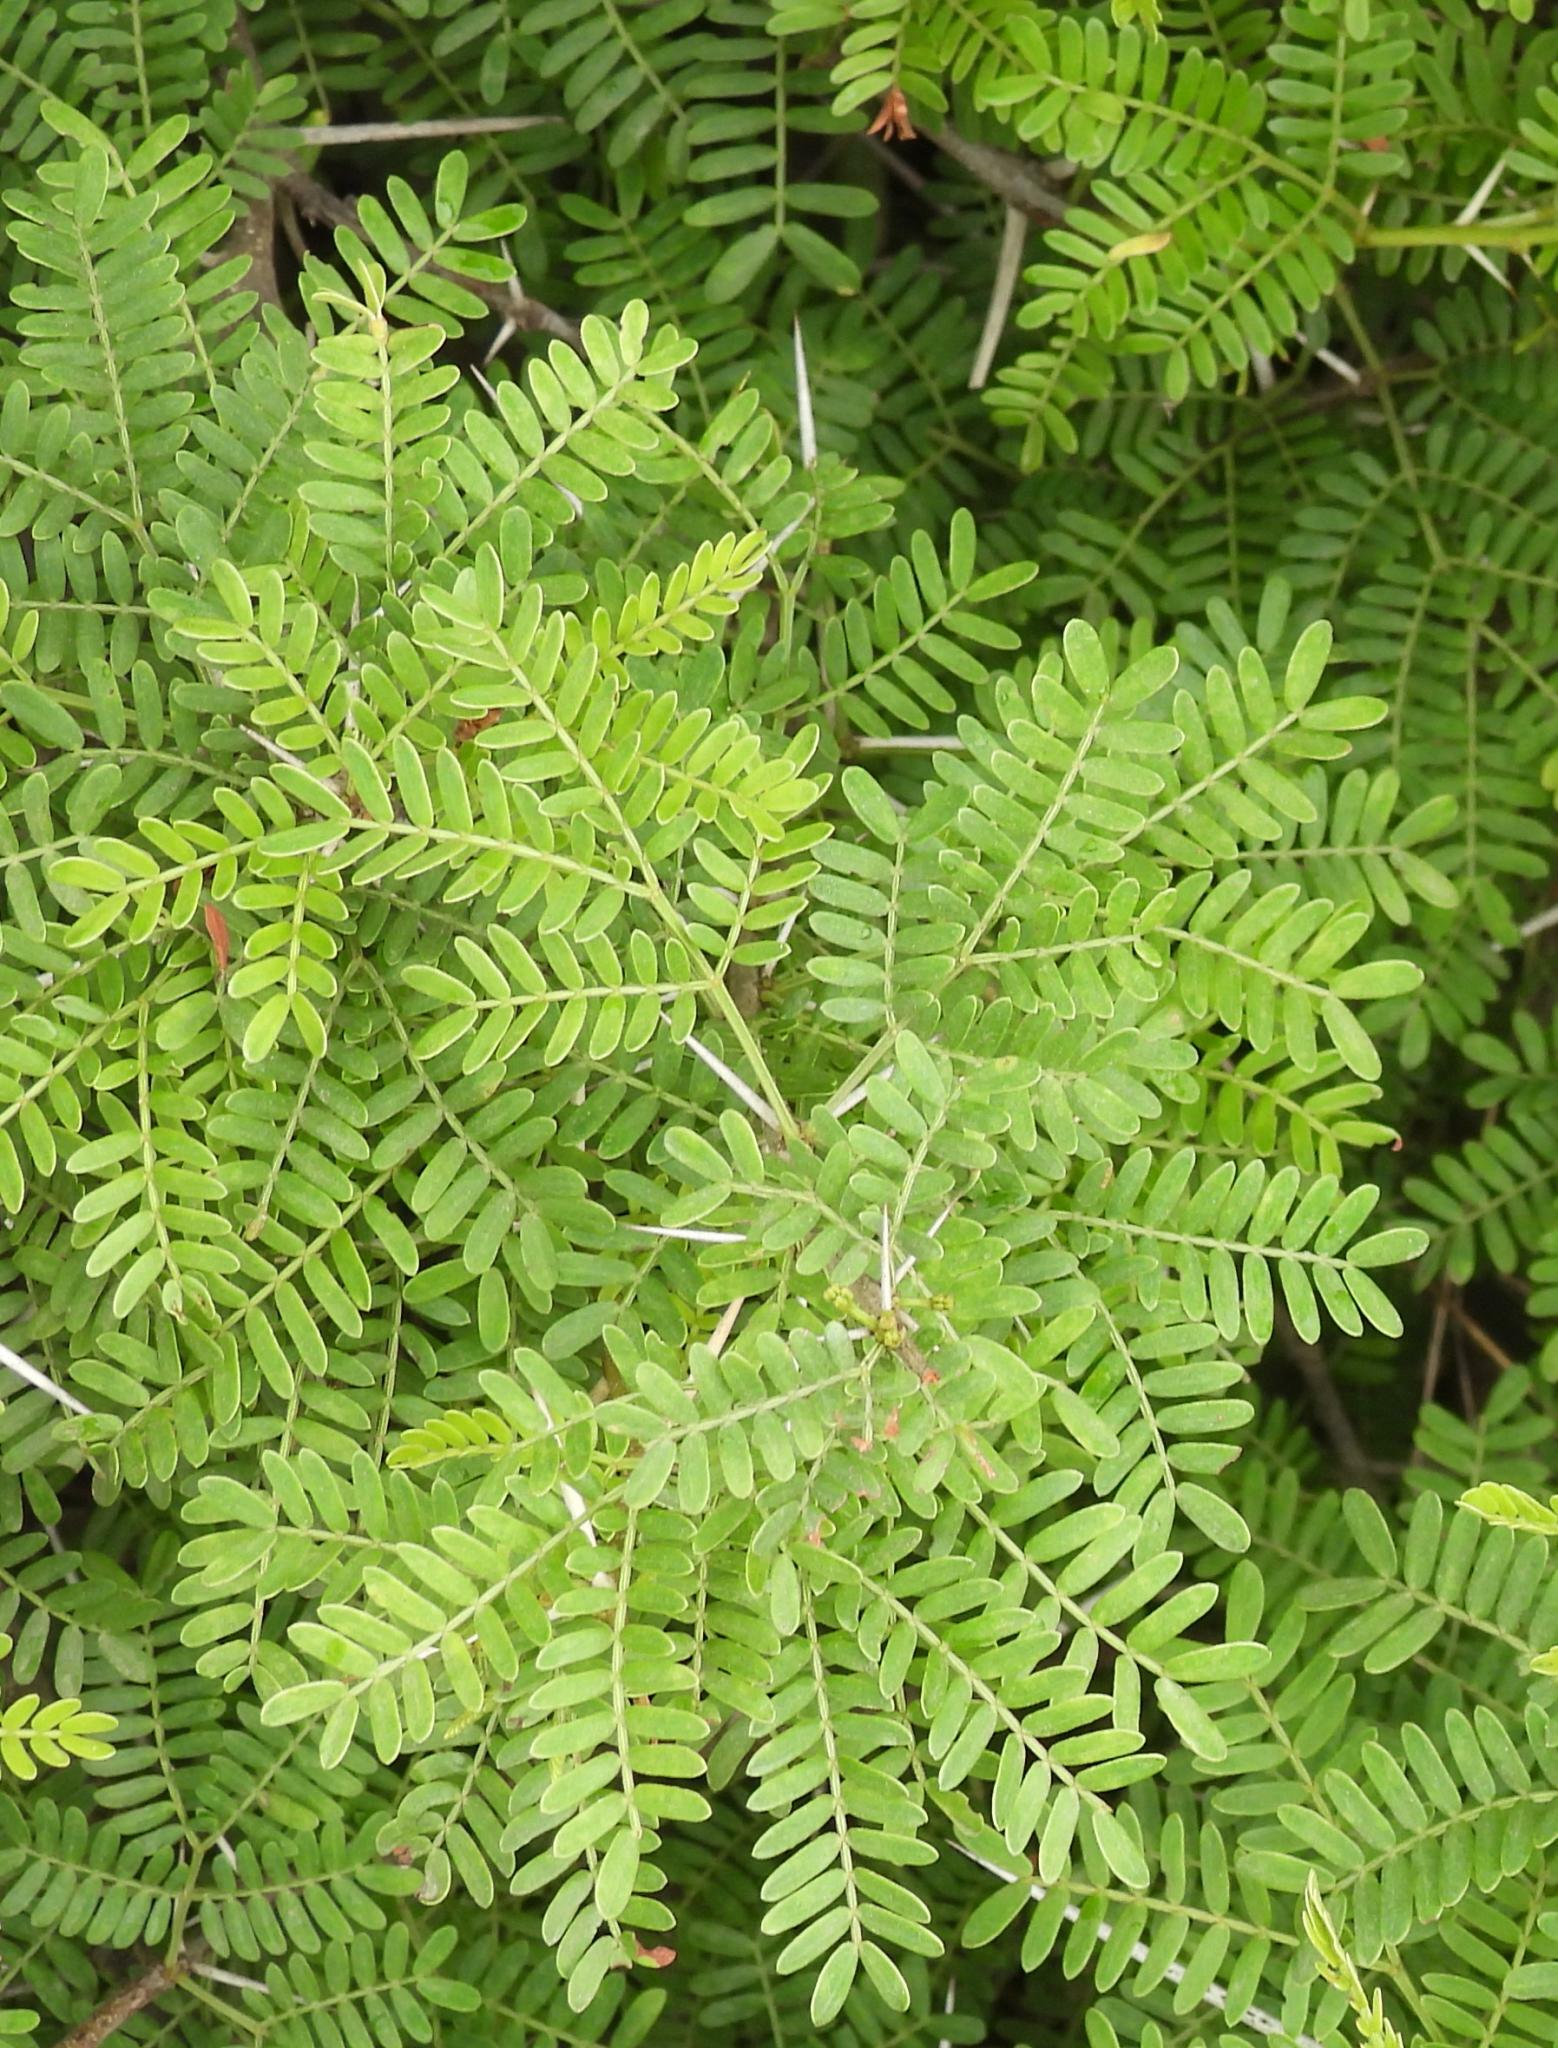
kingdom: Plantae
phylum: Tracheophyta
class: Magnoliopsida
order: Fabales
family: Fabaceae
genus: Vachellia
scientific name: Vachellia karroo
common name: Sweet thorn
